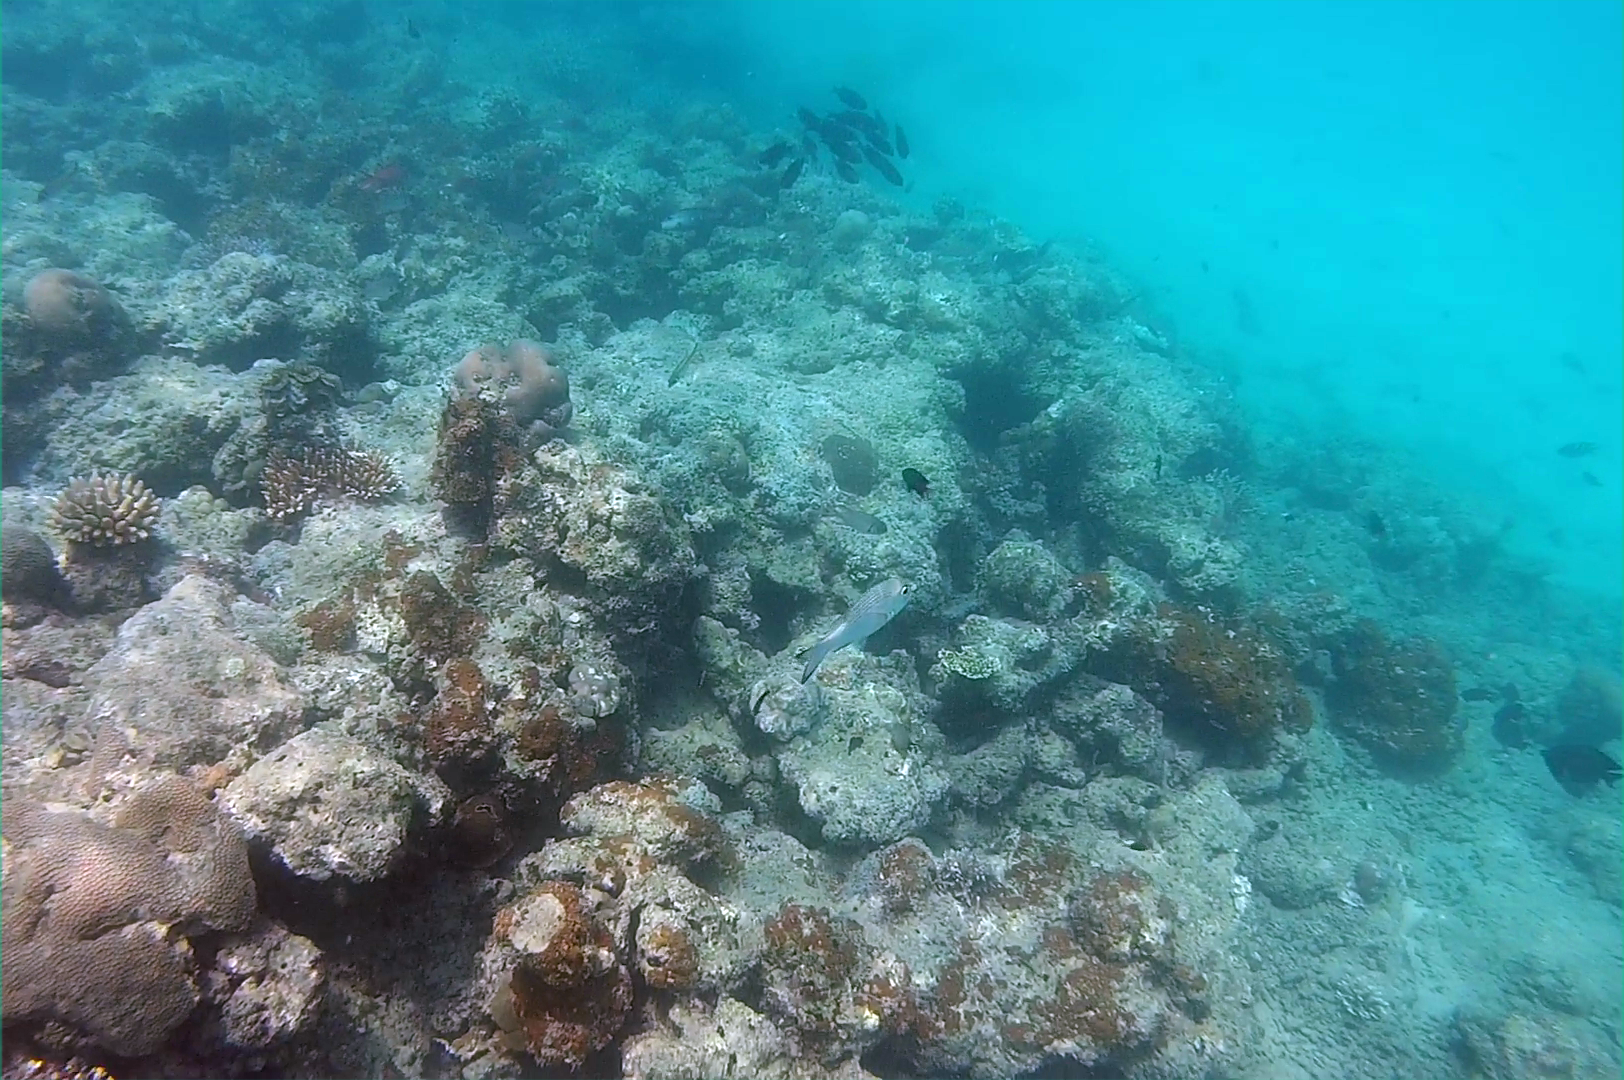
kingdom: Animalia
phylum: Chordata
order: Perciformes
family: Lethrinidae
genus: Monotaxis
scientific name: Monotaxis grandoculis
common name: Bigeye emperor
